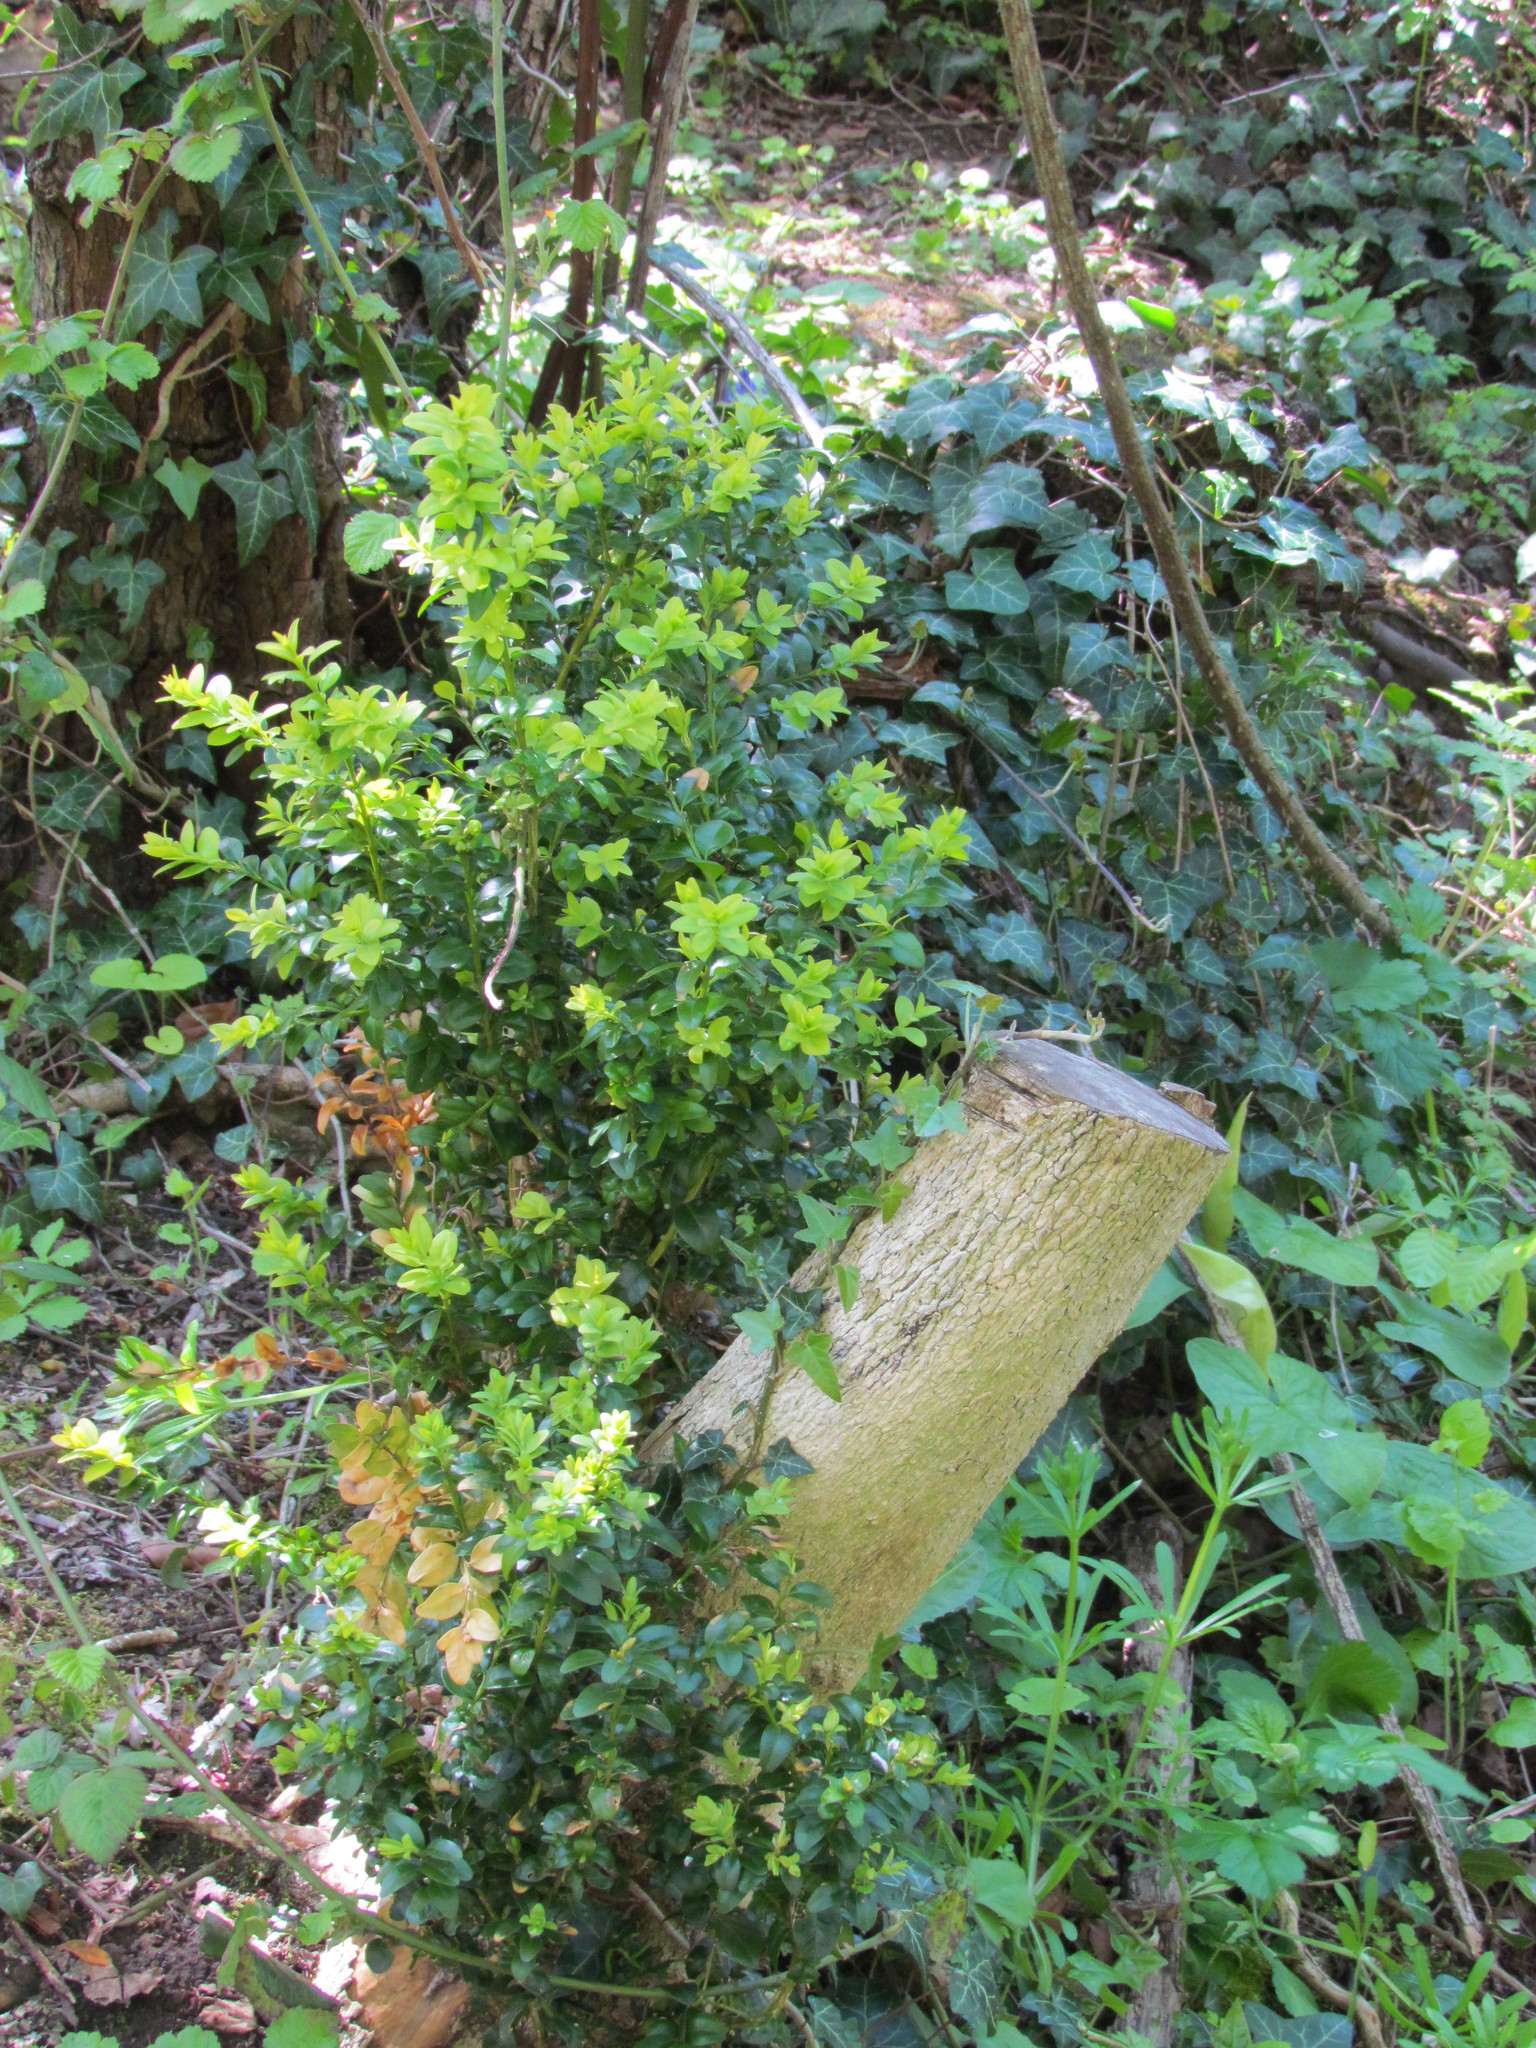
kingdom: Plantae
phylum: Tracheophyta
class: Magnoliopsida
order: Buxales
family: Buxaceae
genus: Buxus
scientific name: Buxus sempervirens
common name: Box
